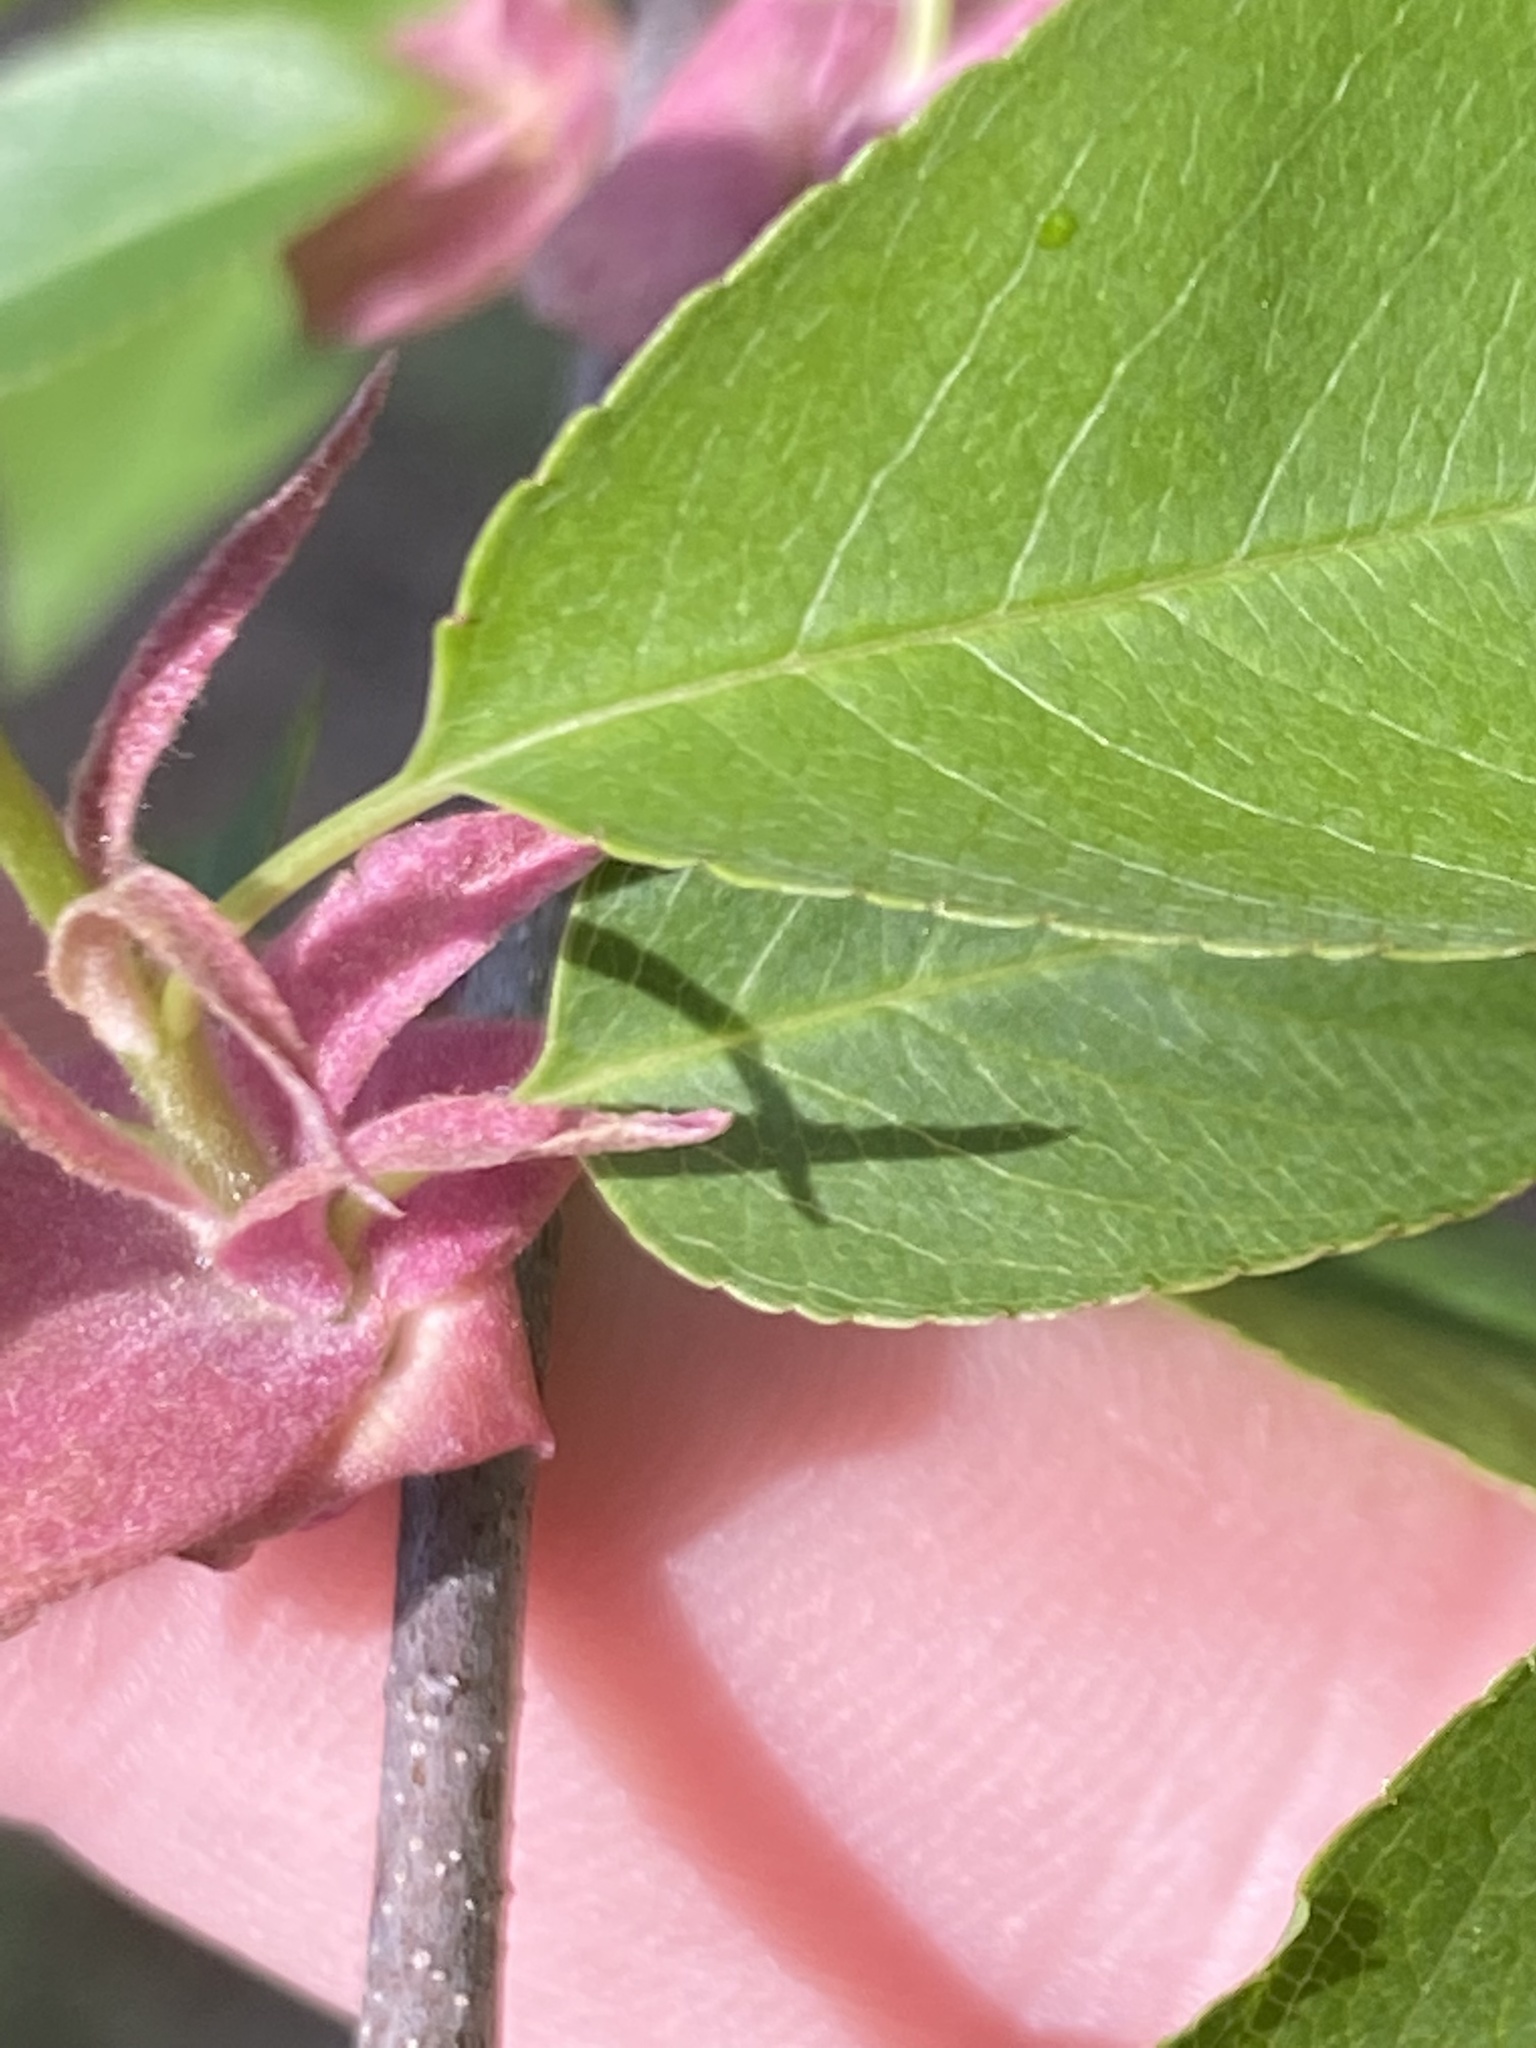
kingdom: Plantae
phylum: Tracheophyta
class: Magnoliopsida
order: Rosales
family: Rosaceae
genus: Prunus
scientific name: Prunus serotina
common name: Black cherry
